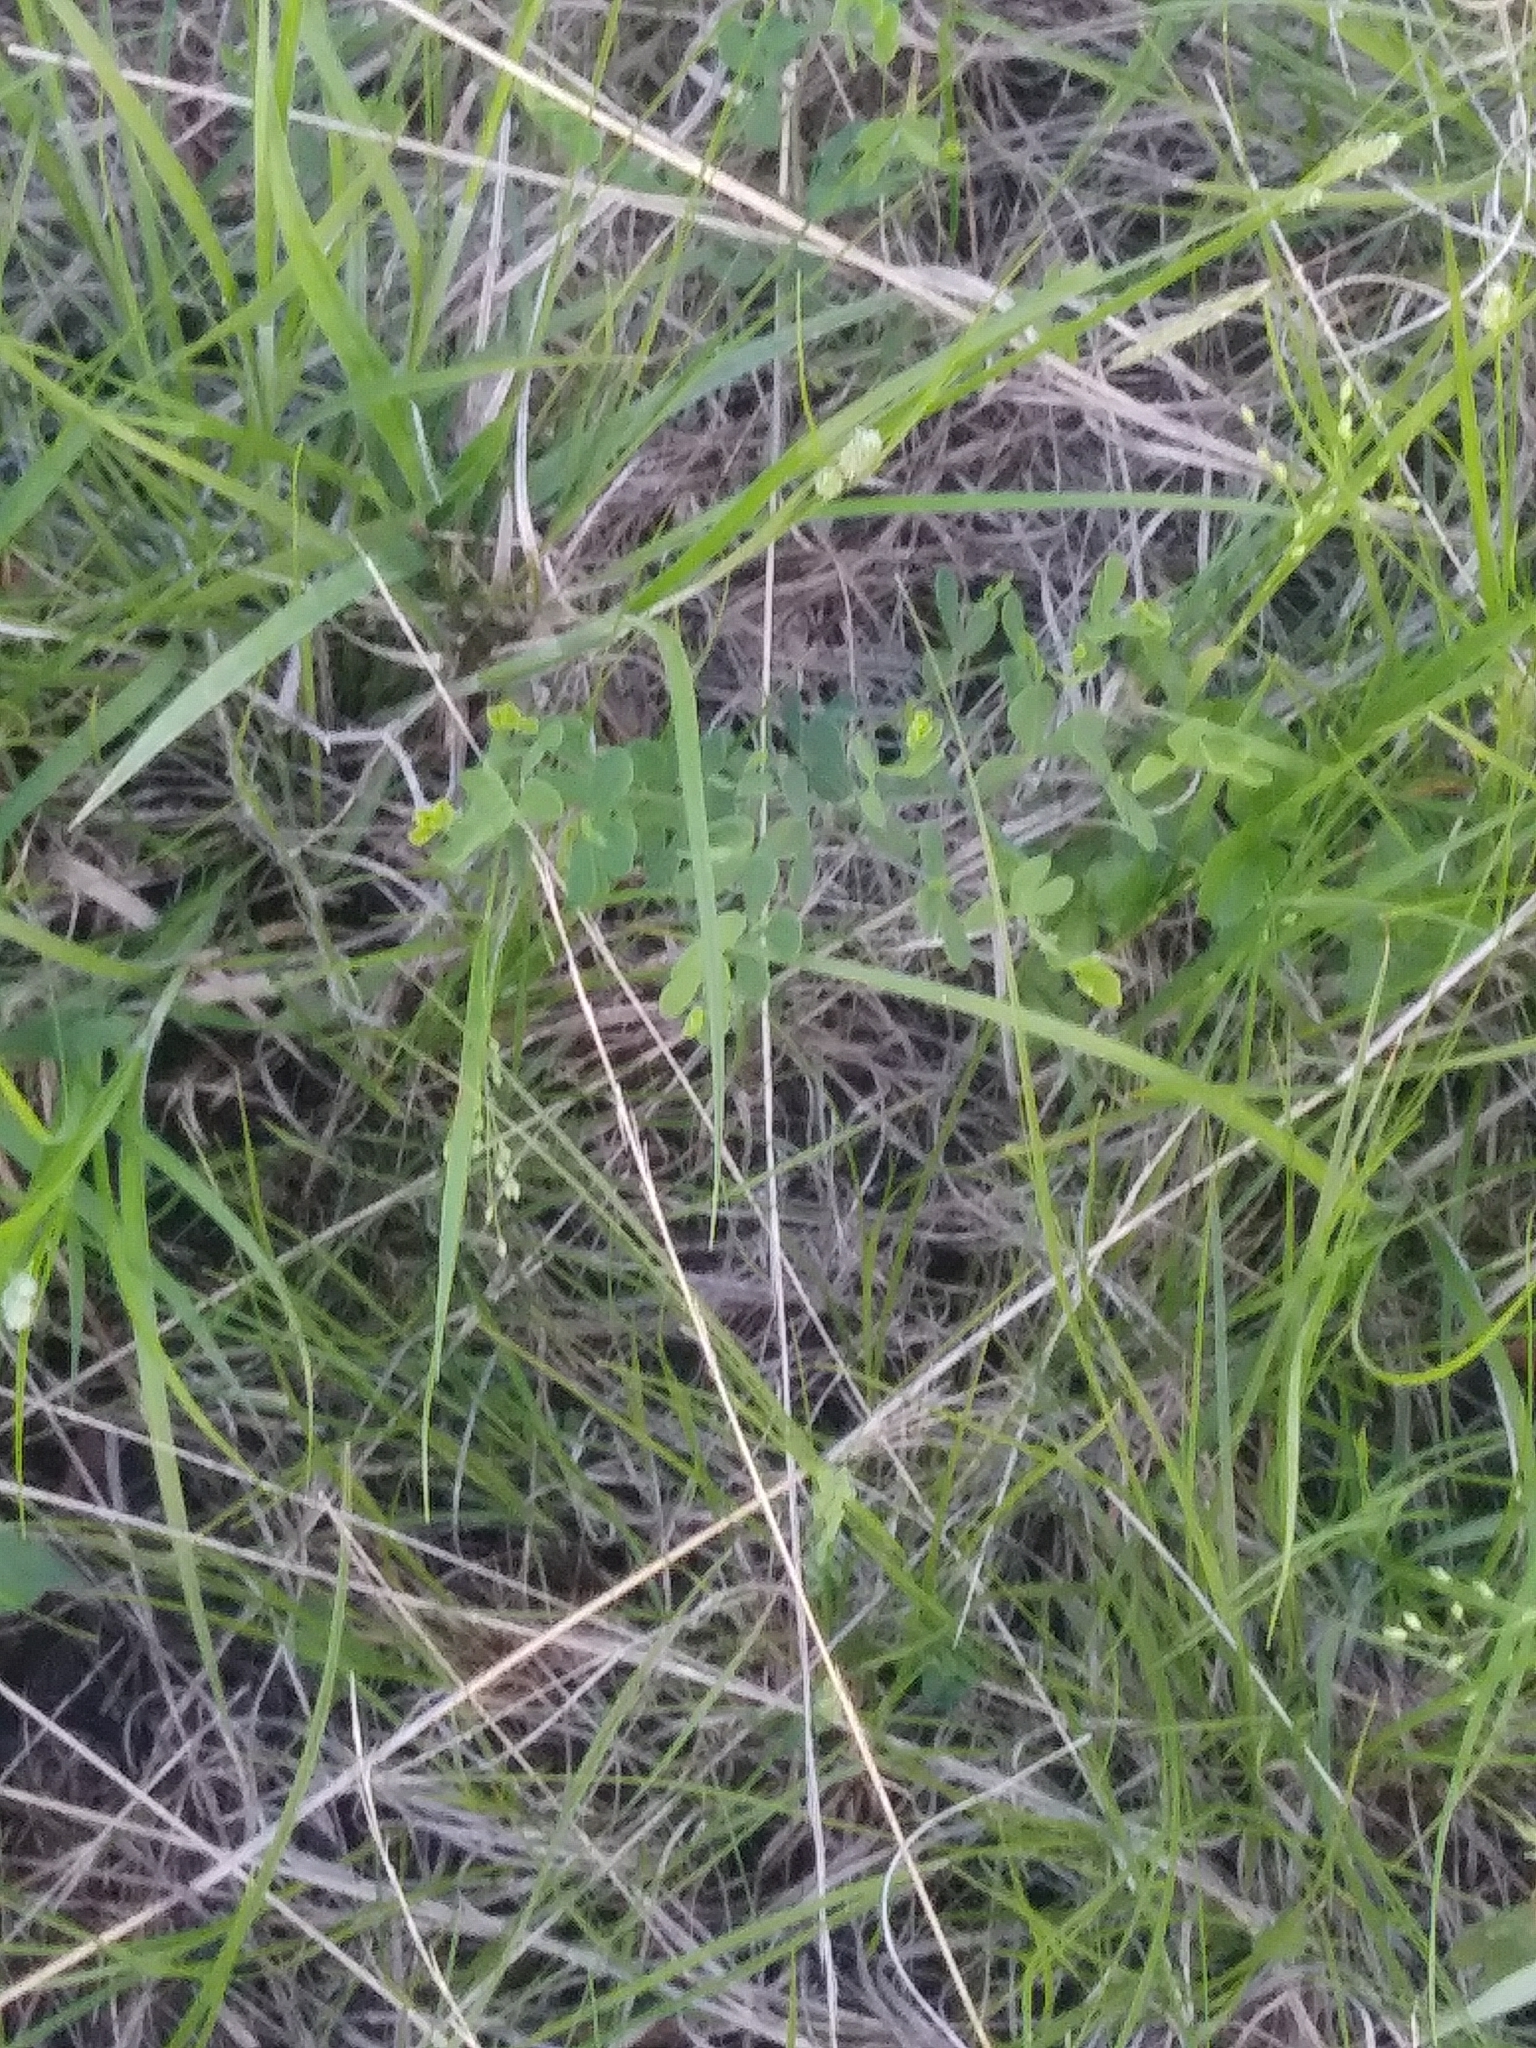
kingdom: Plantae
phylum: Tracheophyta
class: Magnoliopsida
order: Fabales
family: Fabaceae
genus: Baptisia
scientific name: Baptisia tinctoria
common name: Wild indigo
